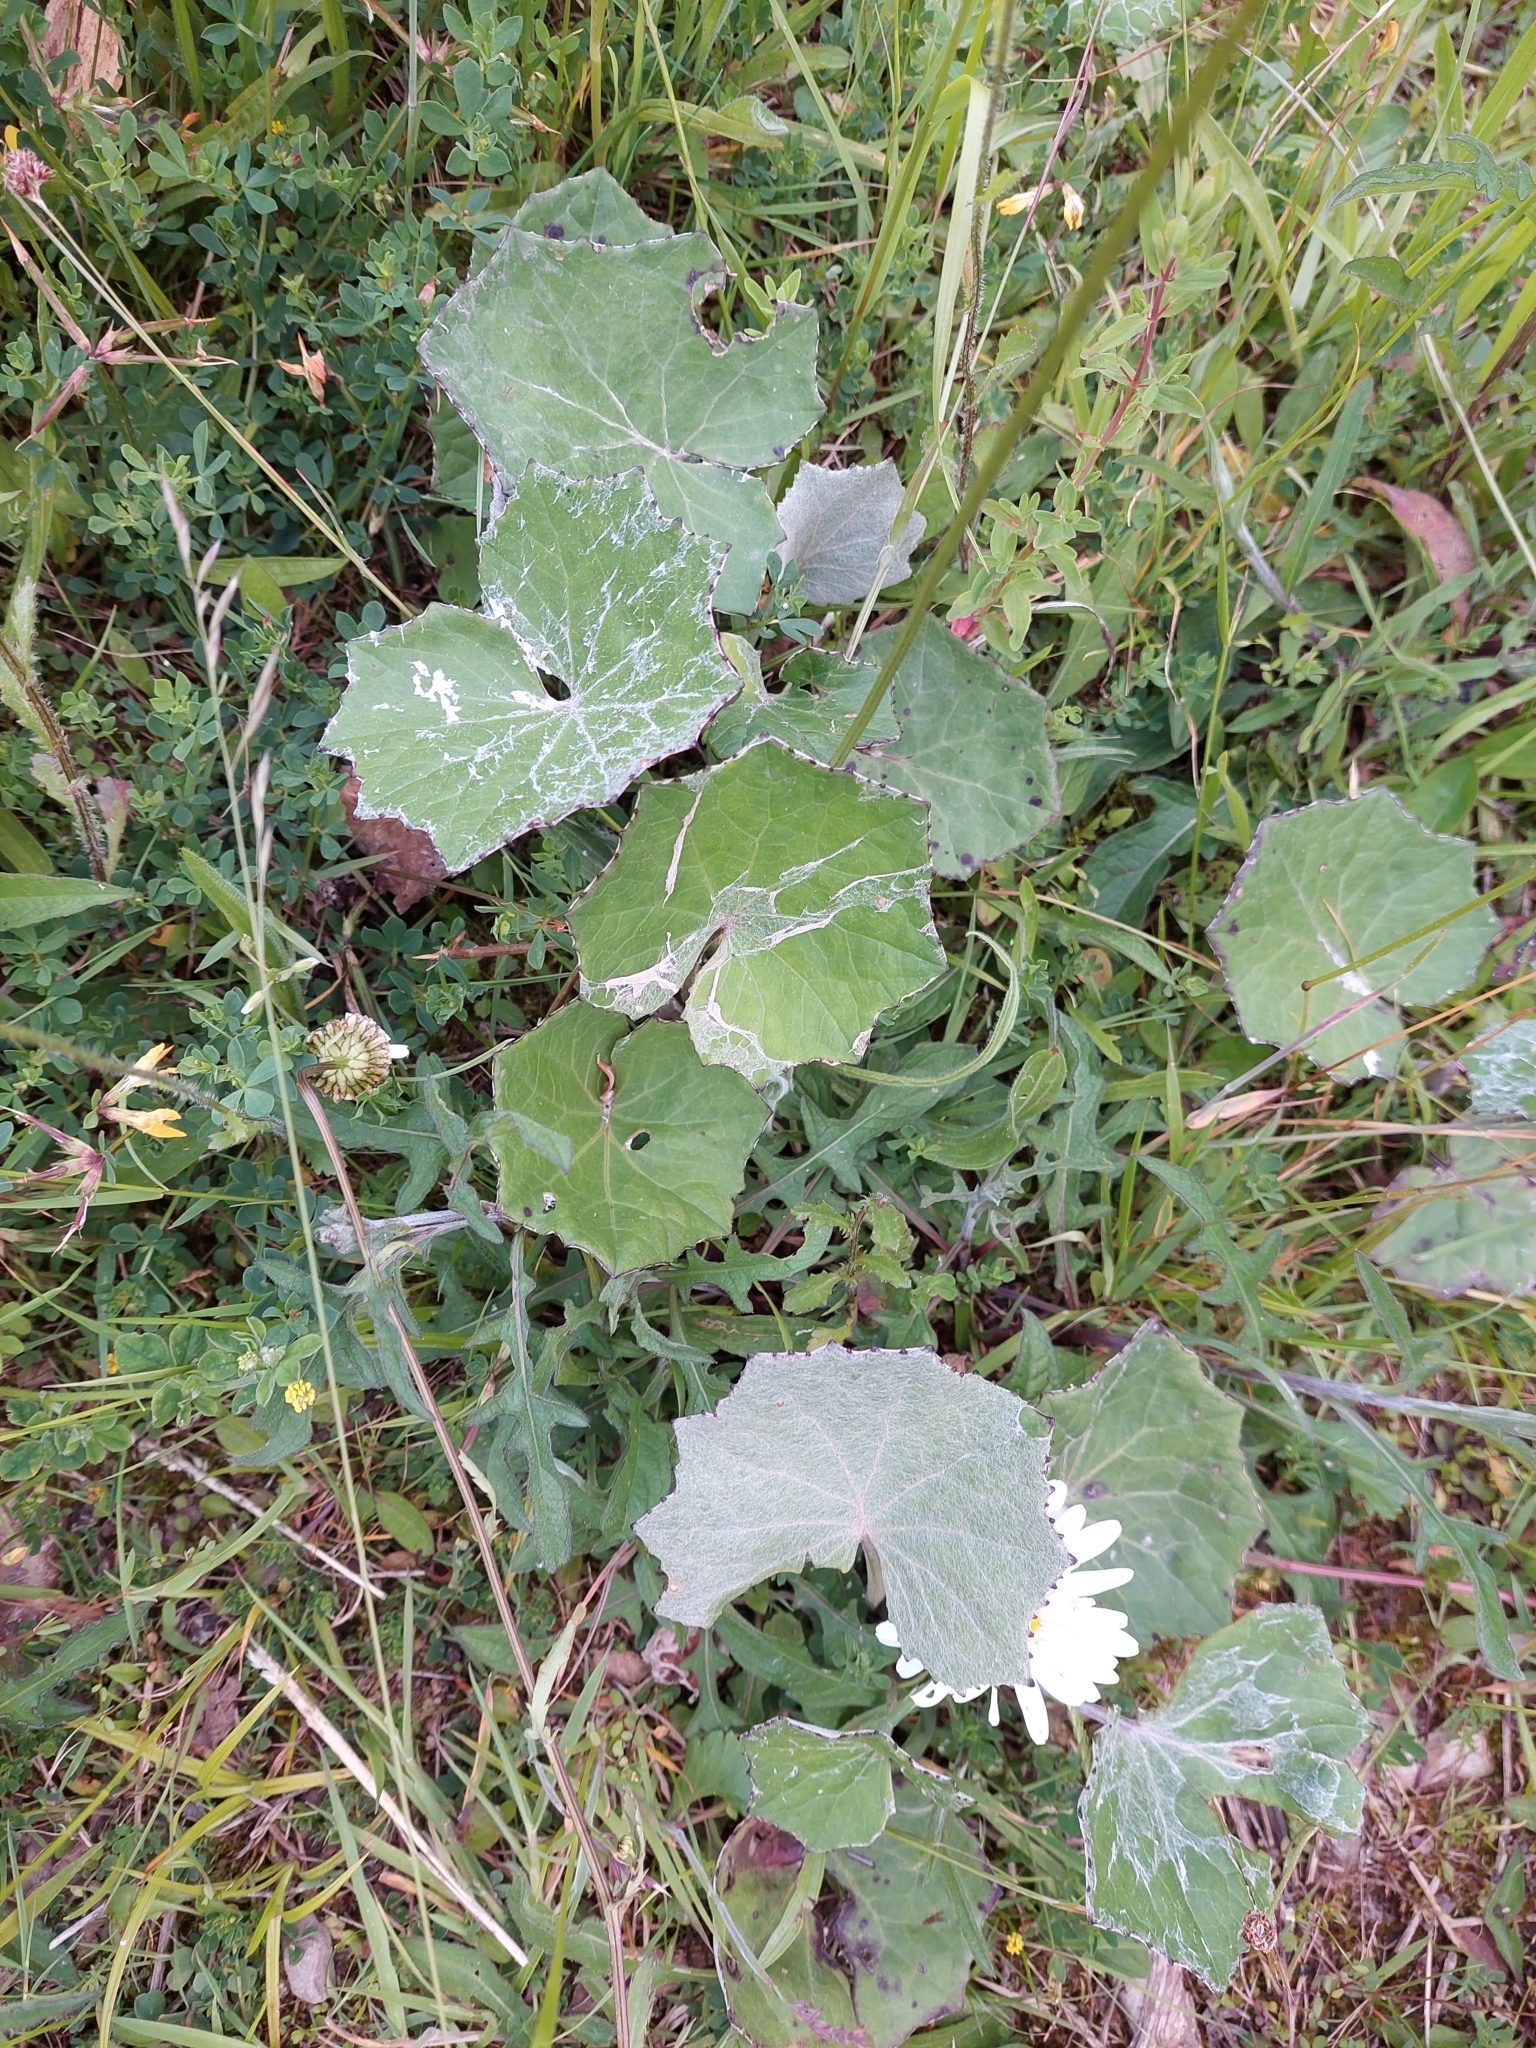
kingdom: Plantae
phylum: Tracheophyta
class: Magnoliopsida
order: Asterales
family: Asteraceae
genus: Tussilago
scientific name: Tussilago farfara
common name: Coltsfoot
